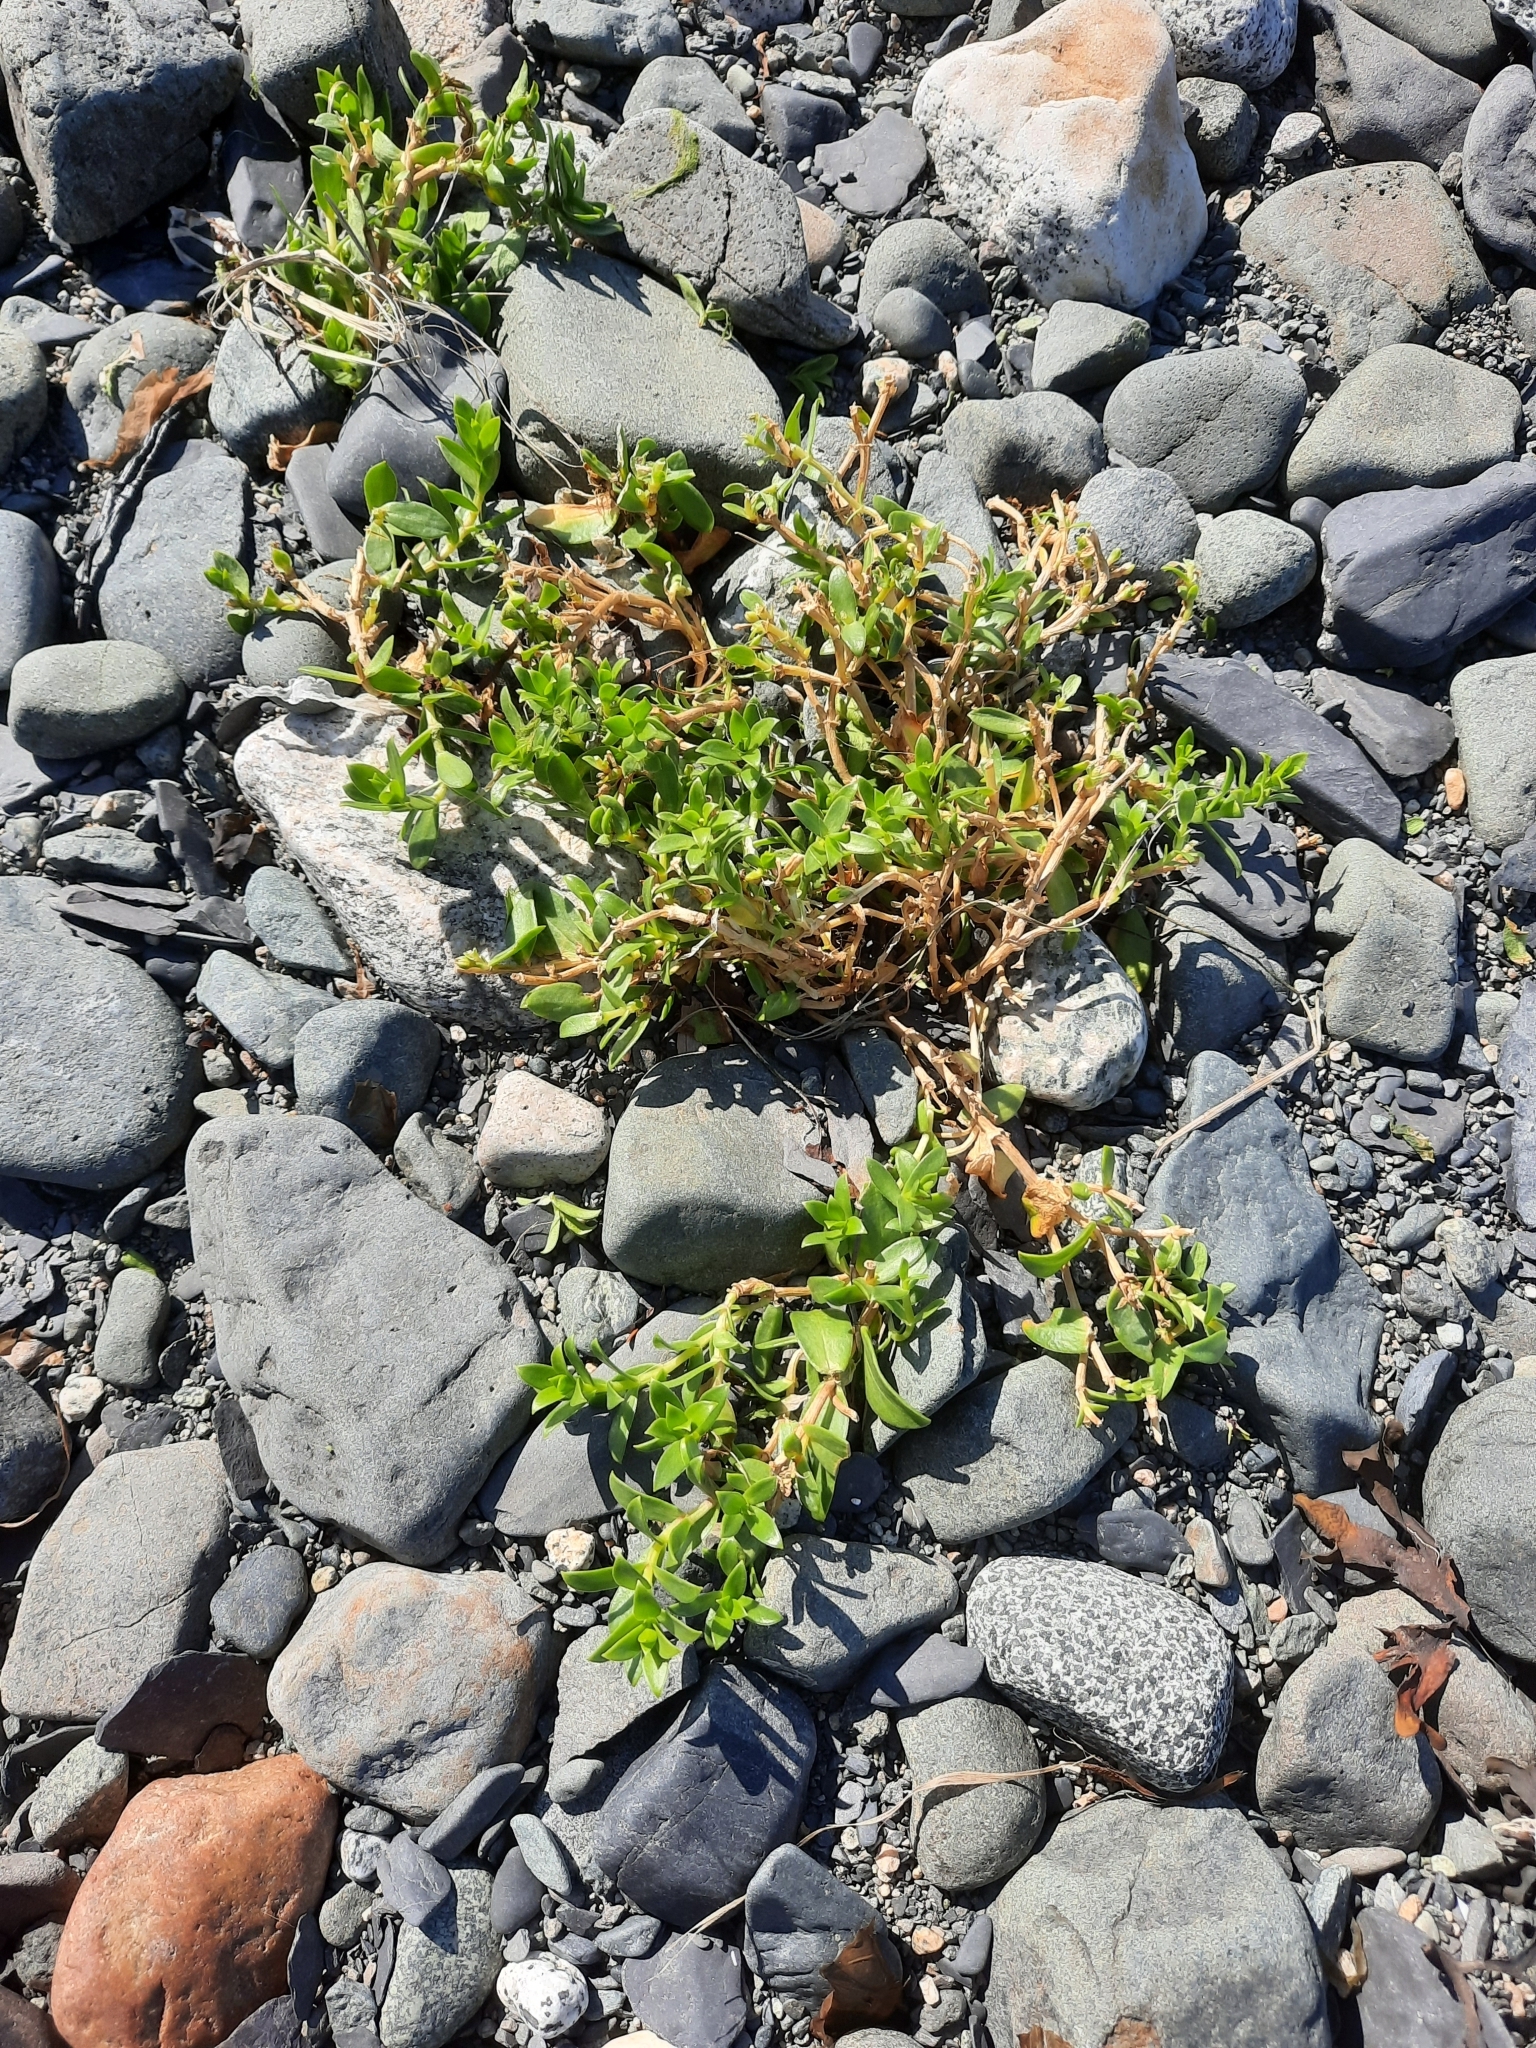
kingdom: Plantae
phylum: Tracheophyta
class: Magnoliopsida
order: Caryophyllales
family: Caryophyllaceae
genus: Honckenya
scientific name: Honckenya peploides
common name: Sea sandwort
